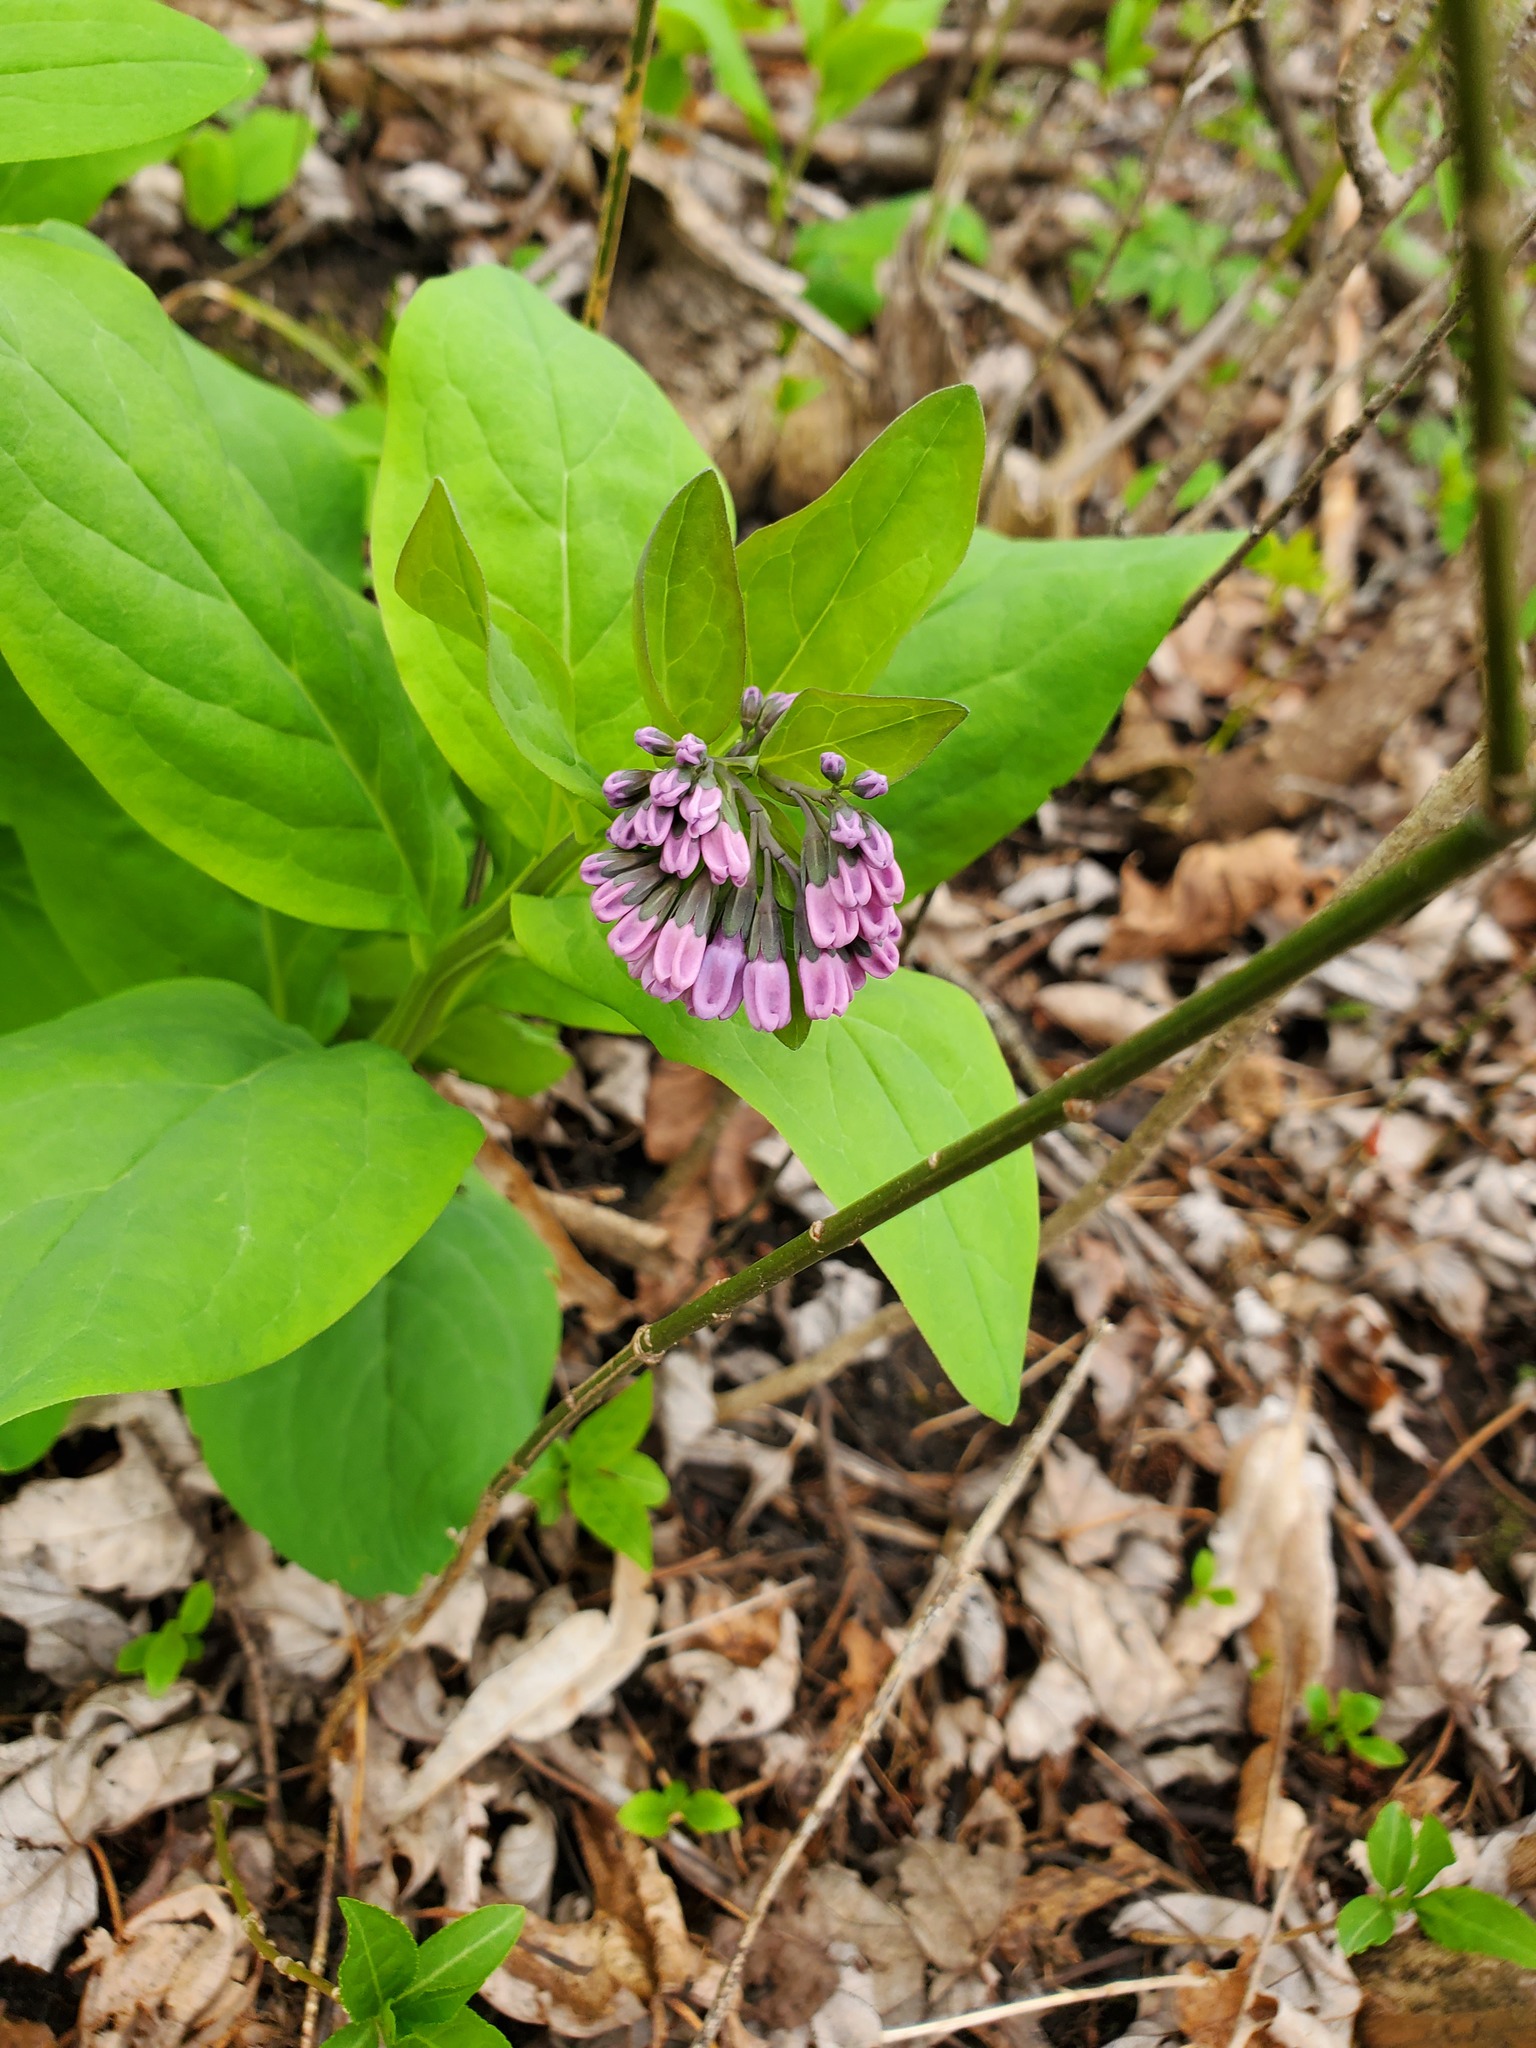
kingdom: Plantae
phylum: Tracheophyta
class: Magnoliopsida
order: Boraginales
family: Boraginaceae
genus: Mertensia
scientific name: Mertensia virginica
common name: Virginia bluebells
